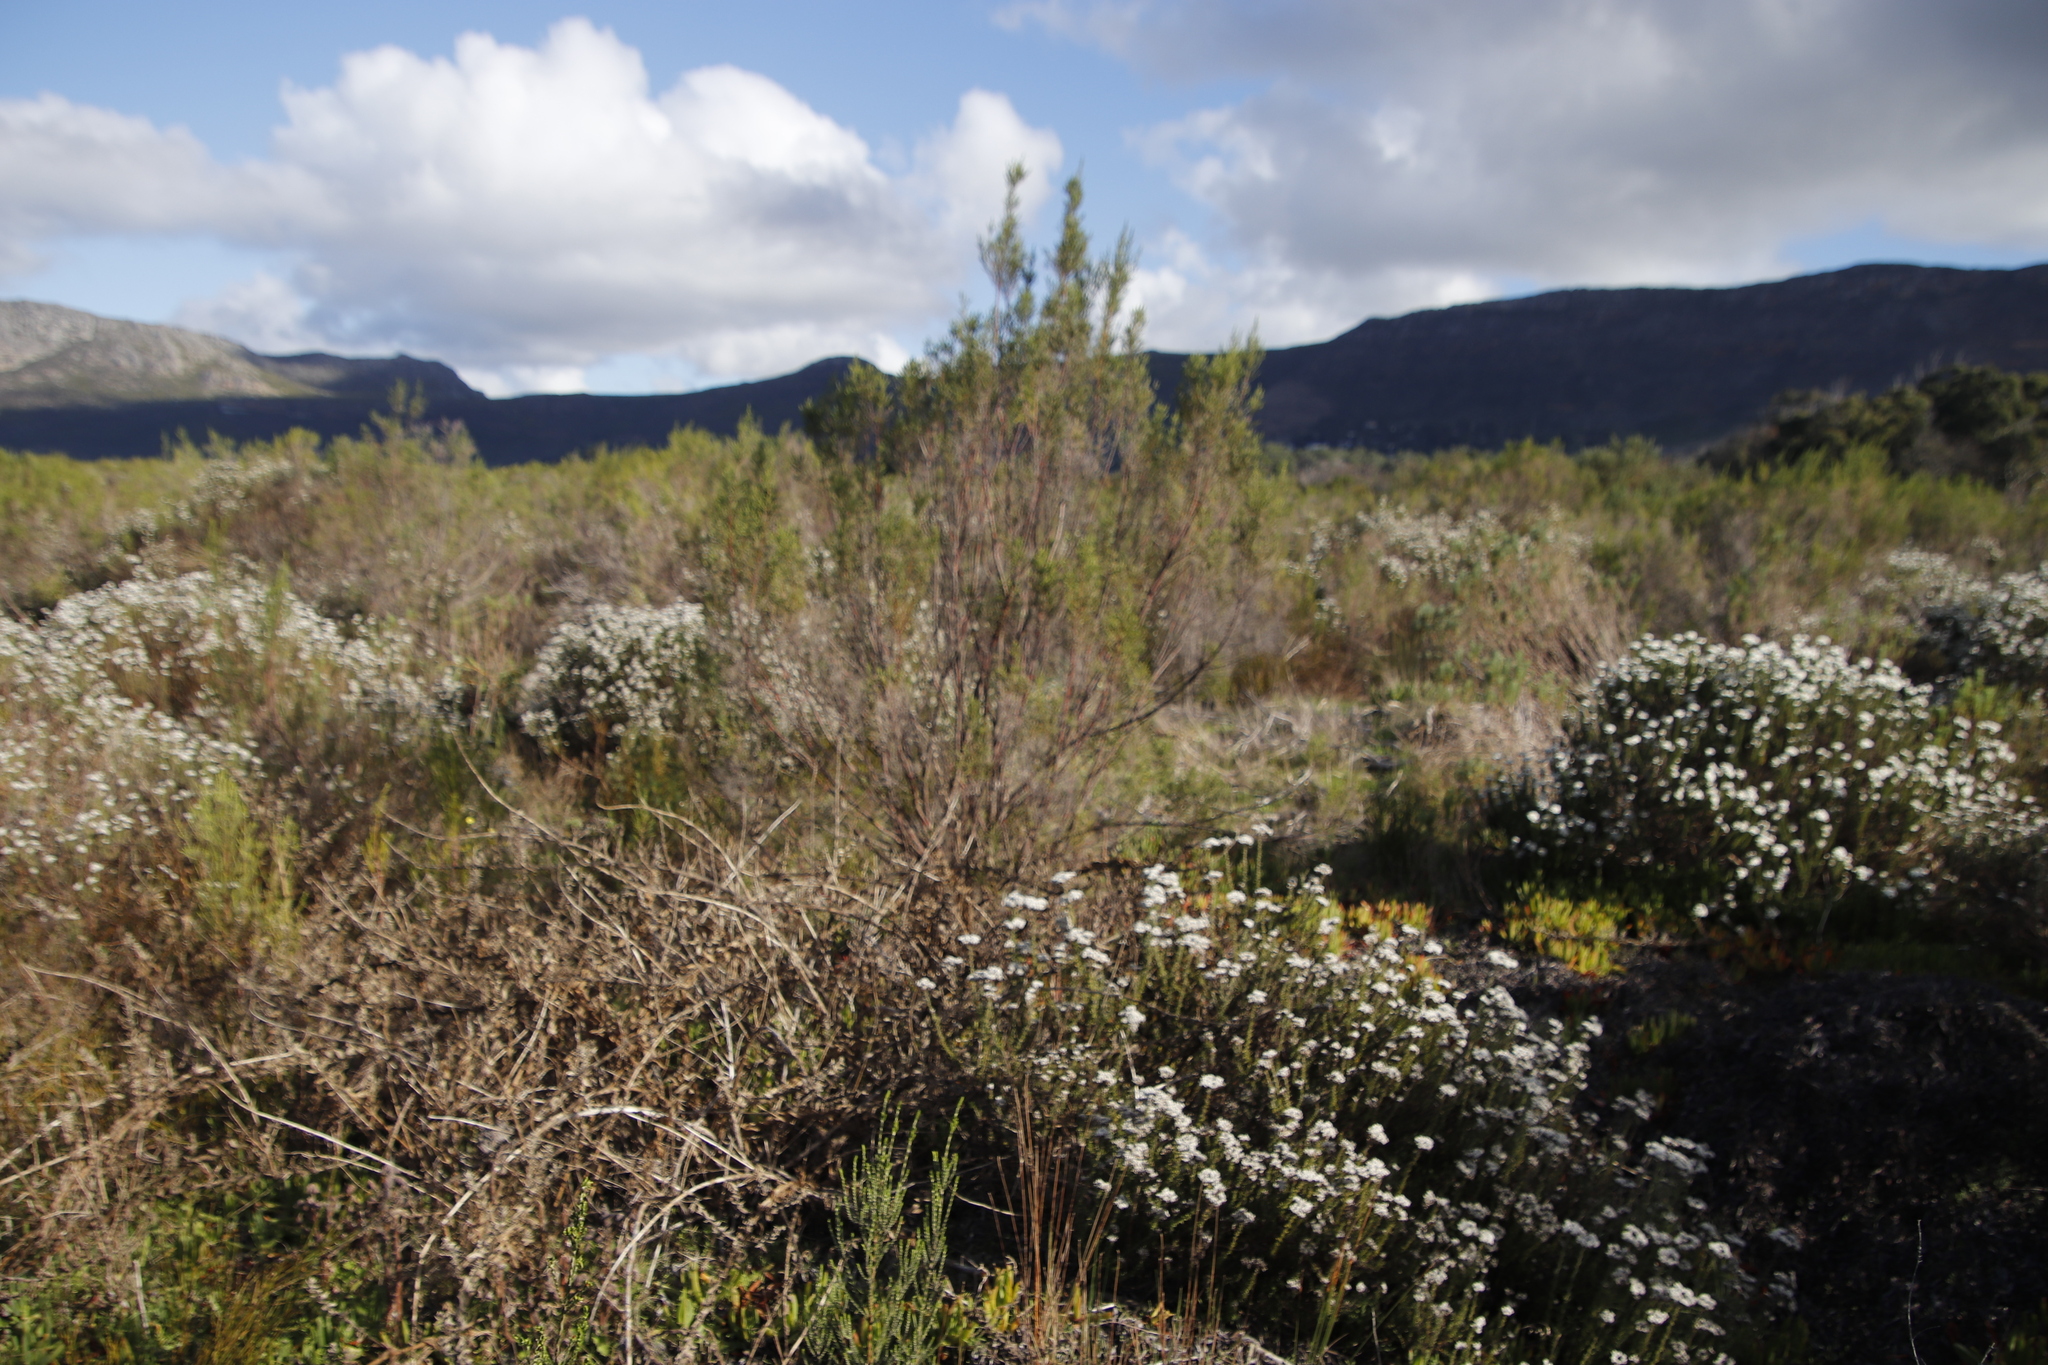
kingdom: Plantae
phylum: Tracheophyta
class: Magnoliopsida
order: Malvales
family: Thymelaeaceae
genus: Passerina
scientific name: Passerina corymbosa
